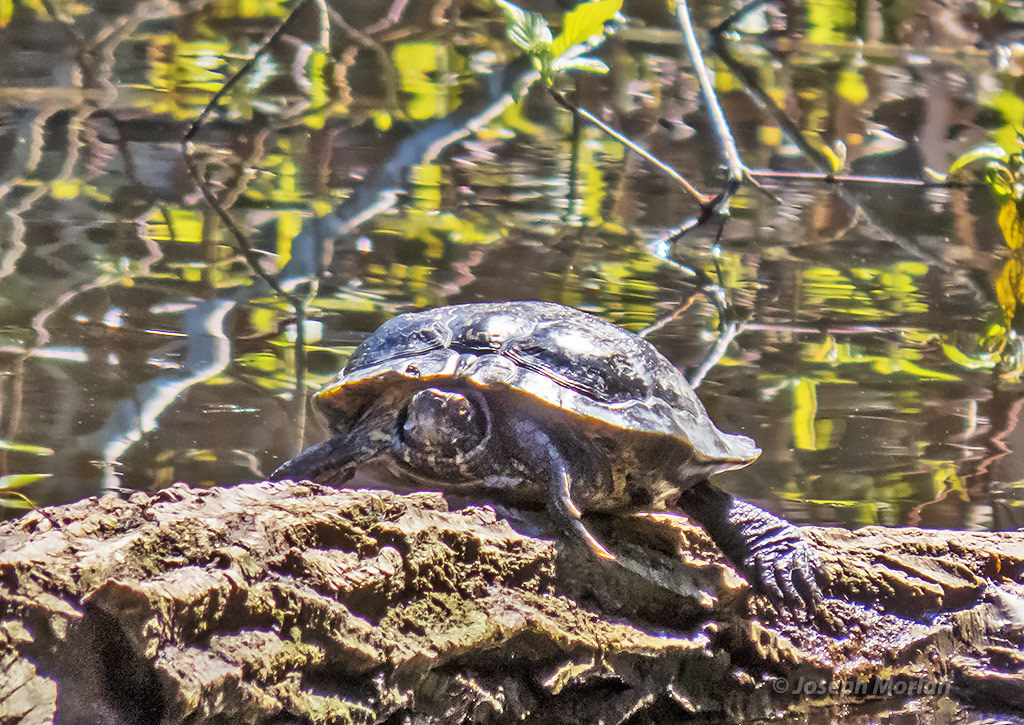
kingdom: Animalia
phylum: Chordata
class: Testudines
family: Emydidae
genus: Trachemys
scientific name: Trachemys scripta
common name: Slider
